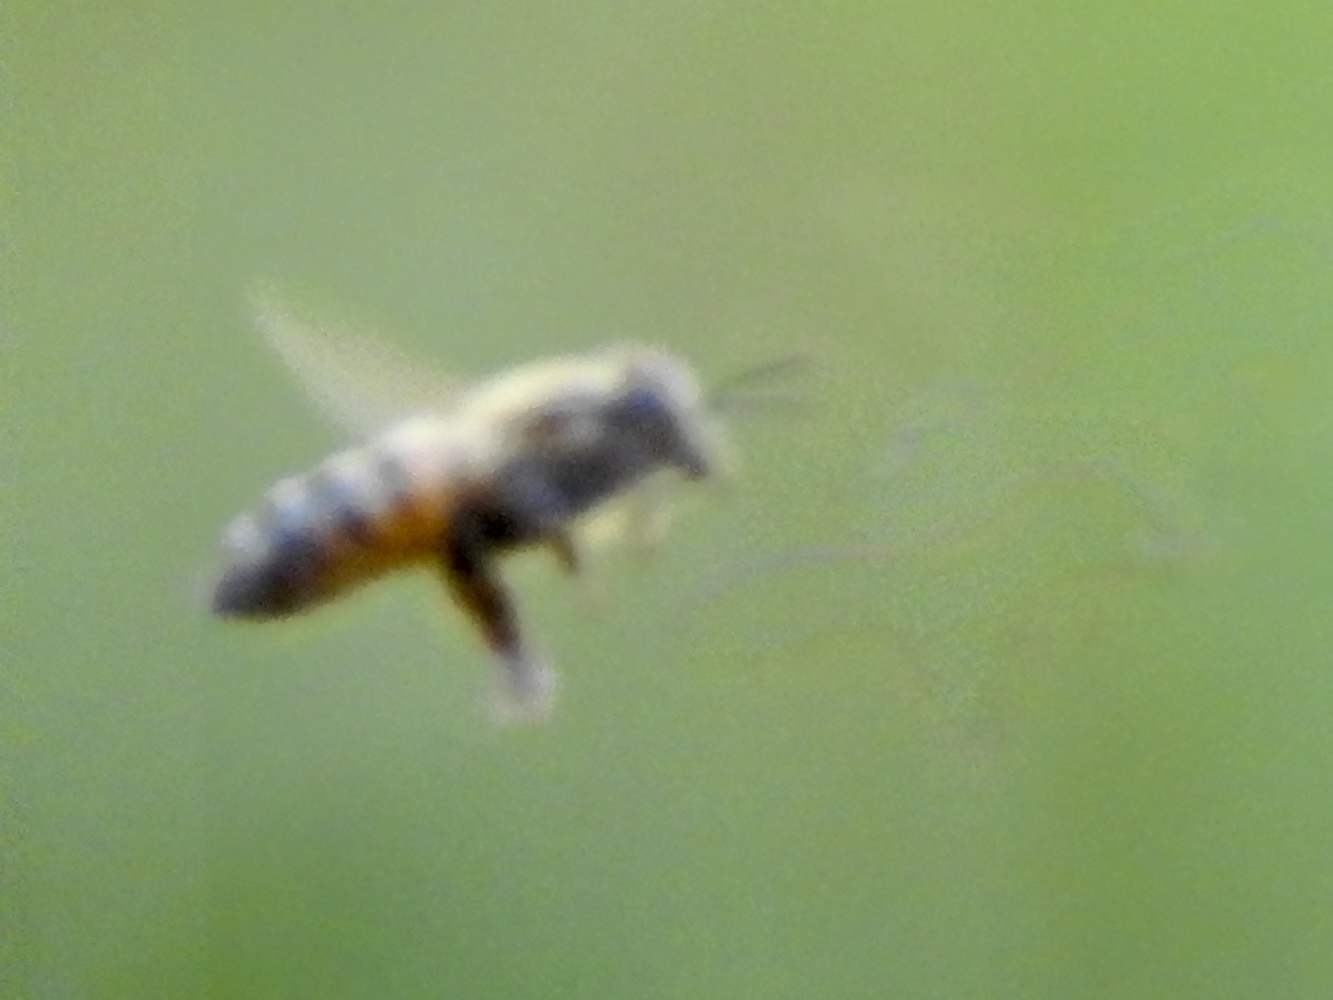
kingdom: Animalia
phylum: Arthropoda
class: Insecta
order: Hymenoptera
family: Apidae
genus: Apis
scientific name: Apis mellifera
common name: Honey bee
